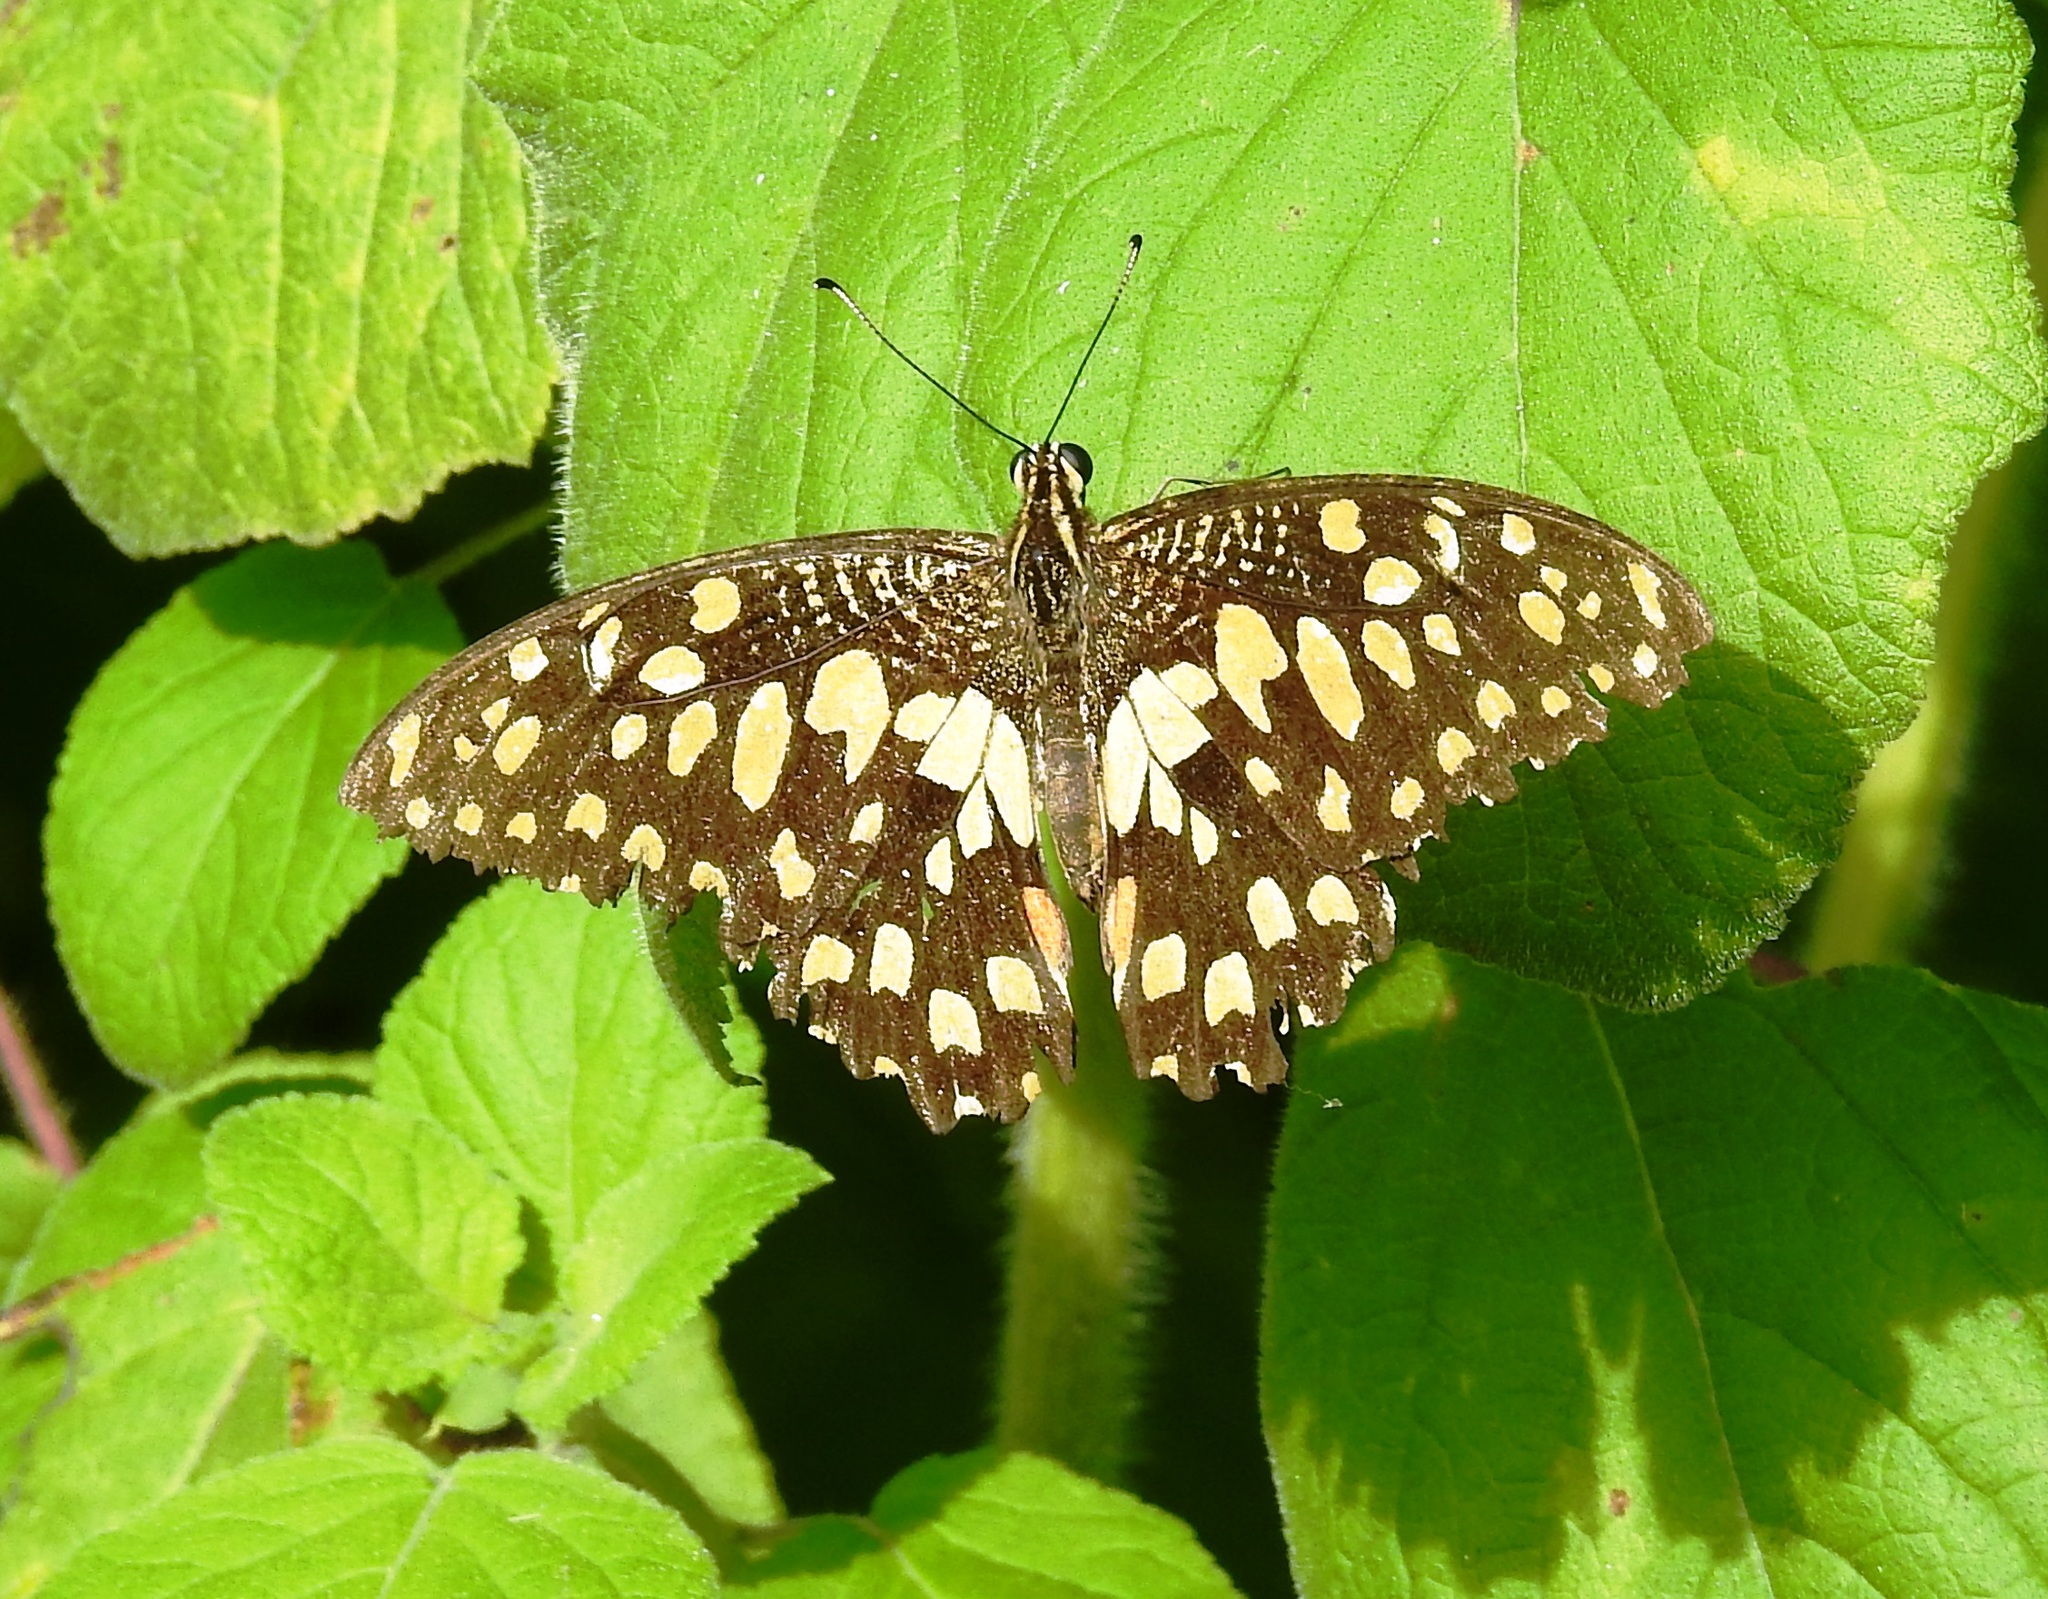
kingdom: Animalia
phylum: Arthropoda
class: Insecta
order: Lepidoptera
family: Papilionidae
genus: Papilio
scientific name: Papilio demoleus
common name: Lime butterfly
